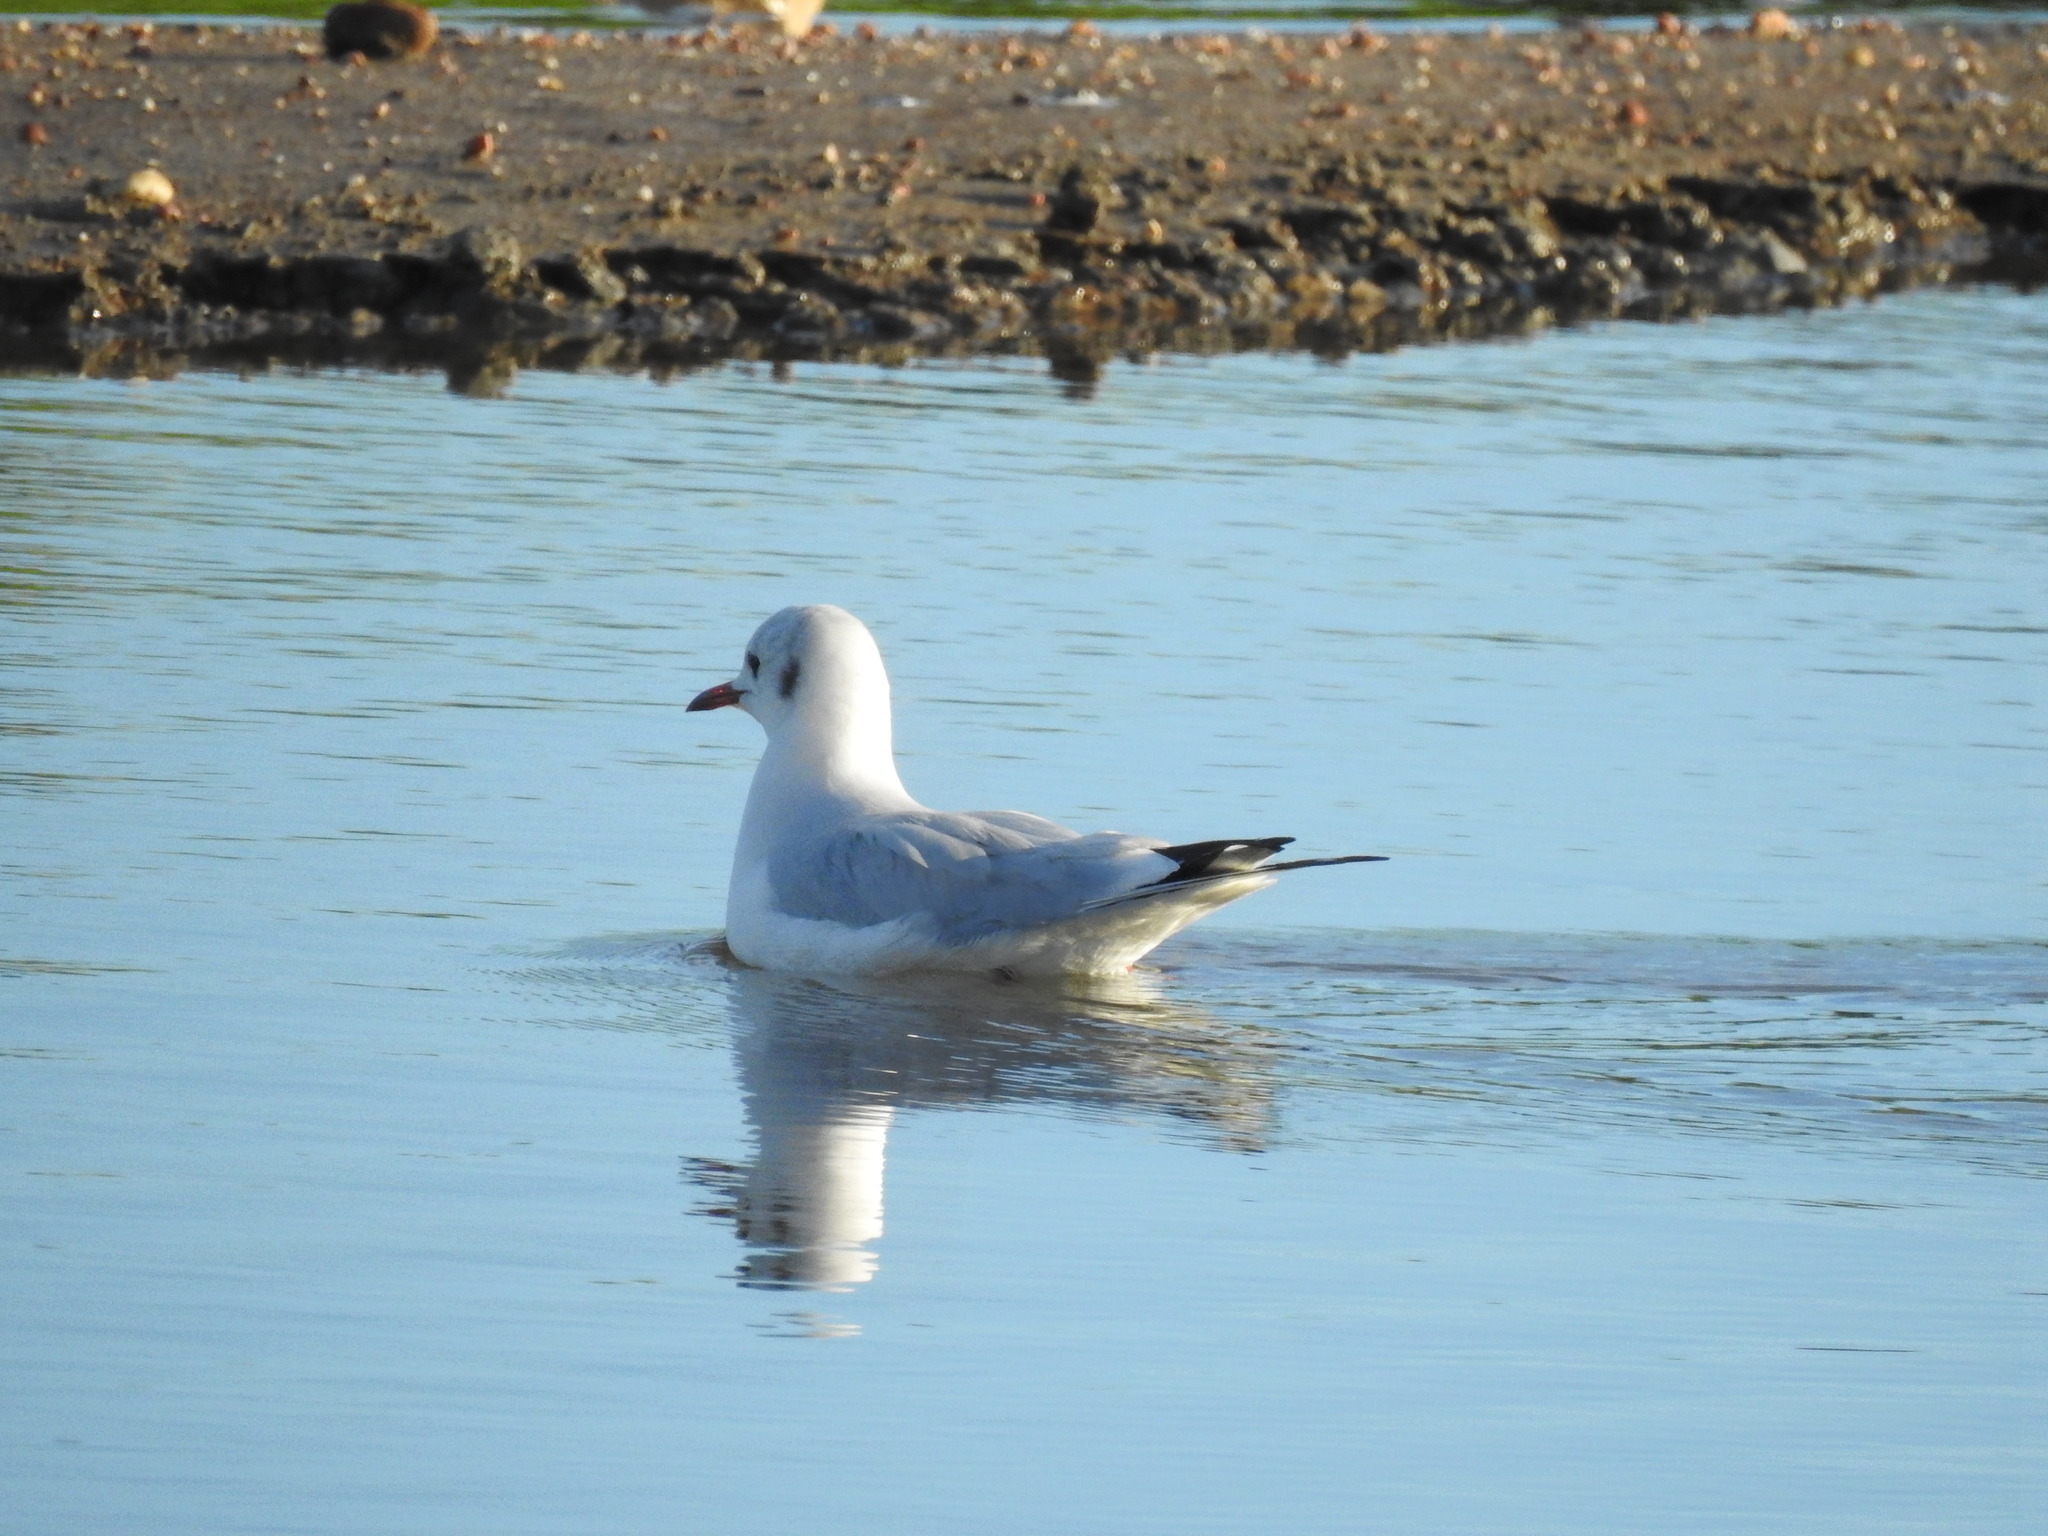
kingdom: Animalia
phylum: Chordata
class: Aves
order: Charadriiformes
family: Laridae
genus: Chroicocephalus
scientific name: Chroicocephalus ridibundus
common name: Black-headed gull
